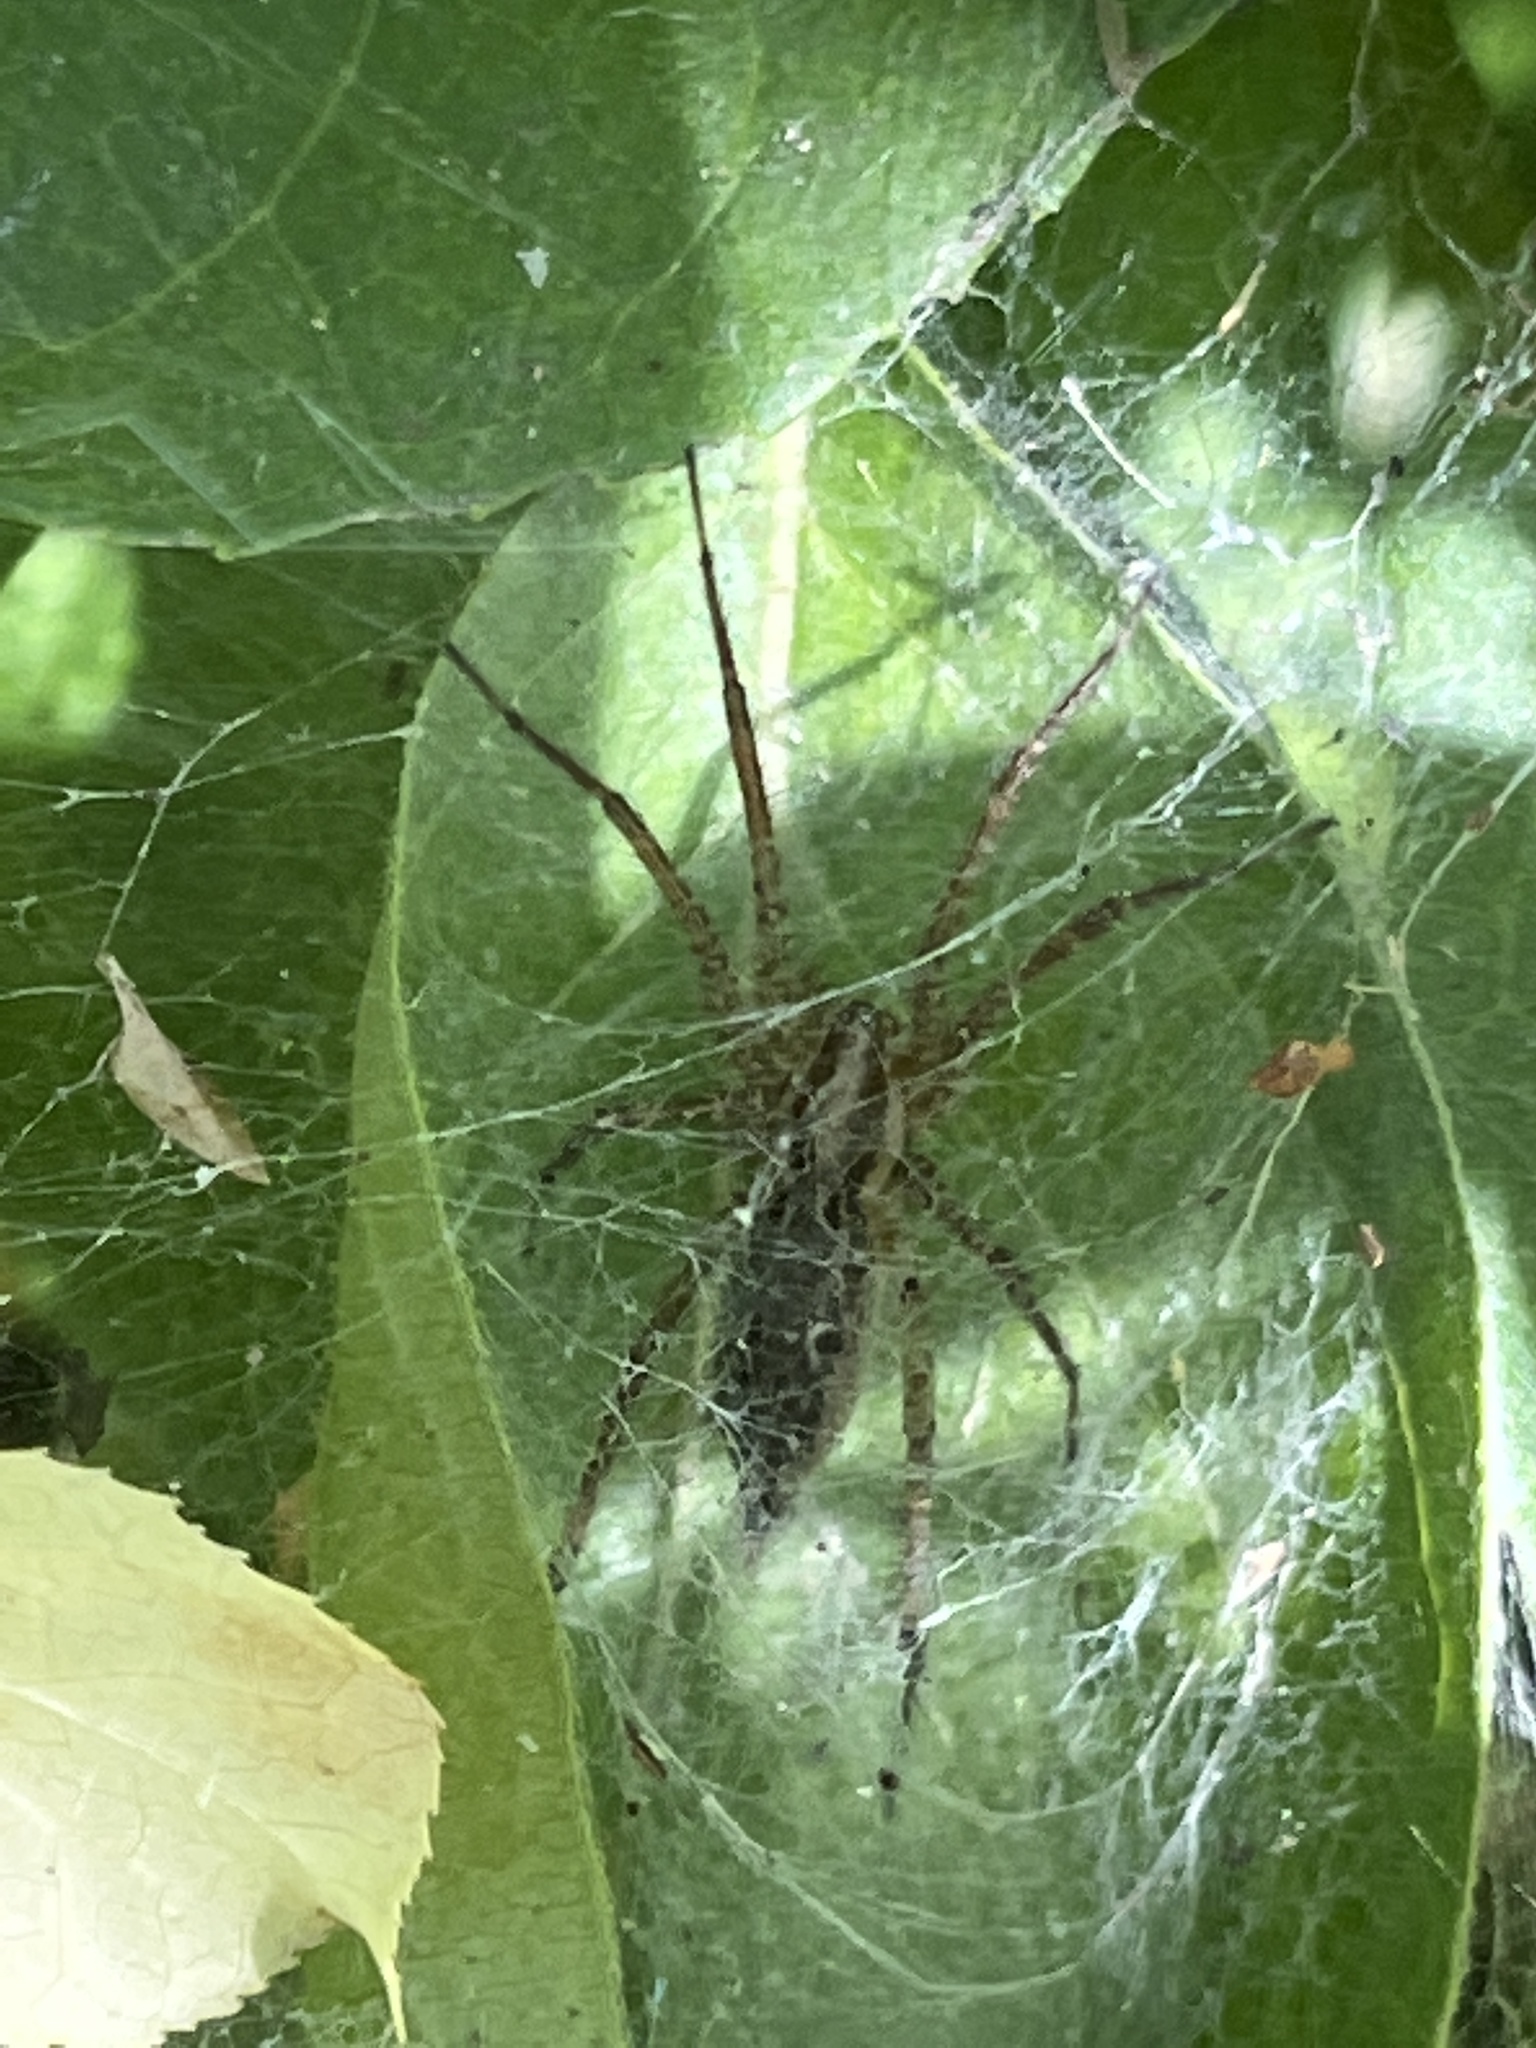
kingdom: Animalia
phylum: Arthropoda
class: Arachnida
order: Araneae
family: Agelenidae
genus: Agelenopsis
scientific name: Agelenopsis
